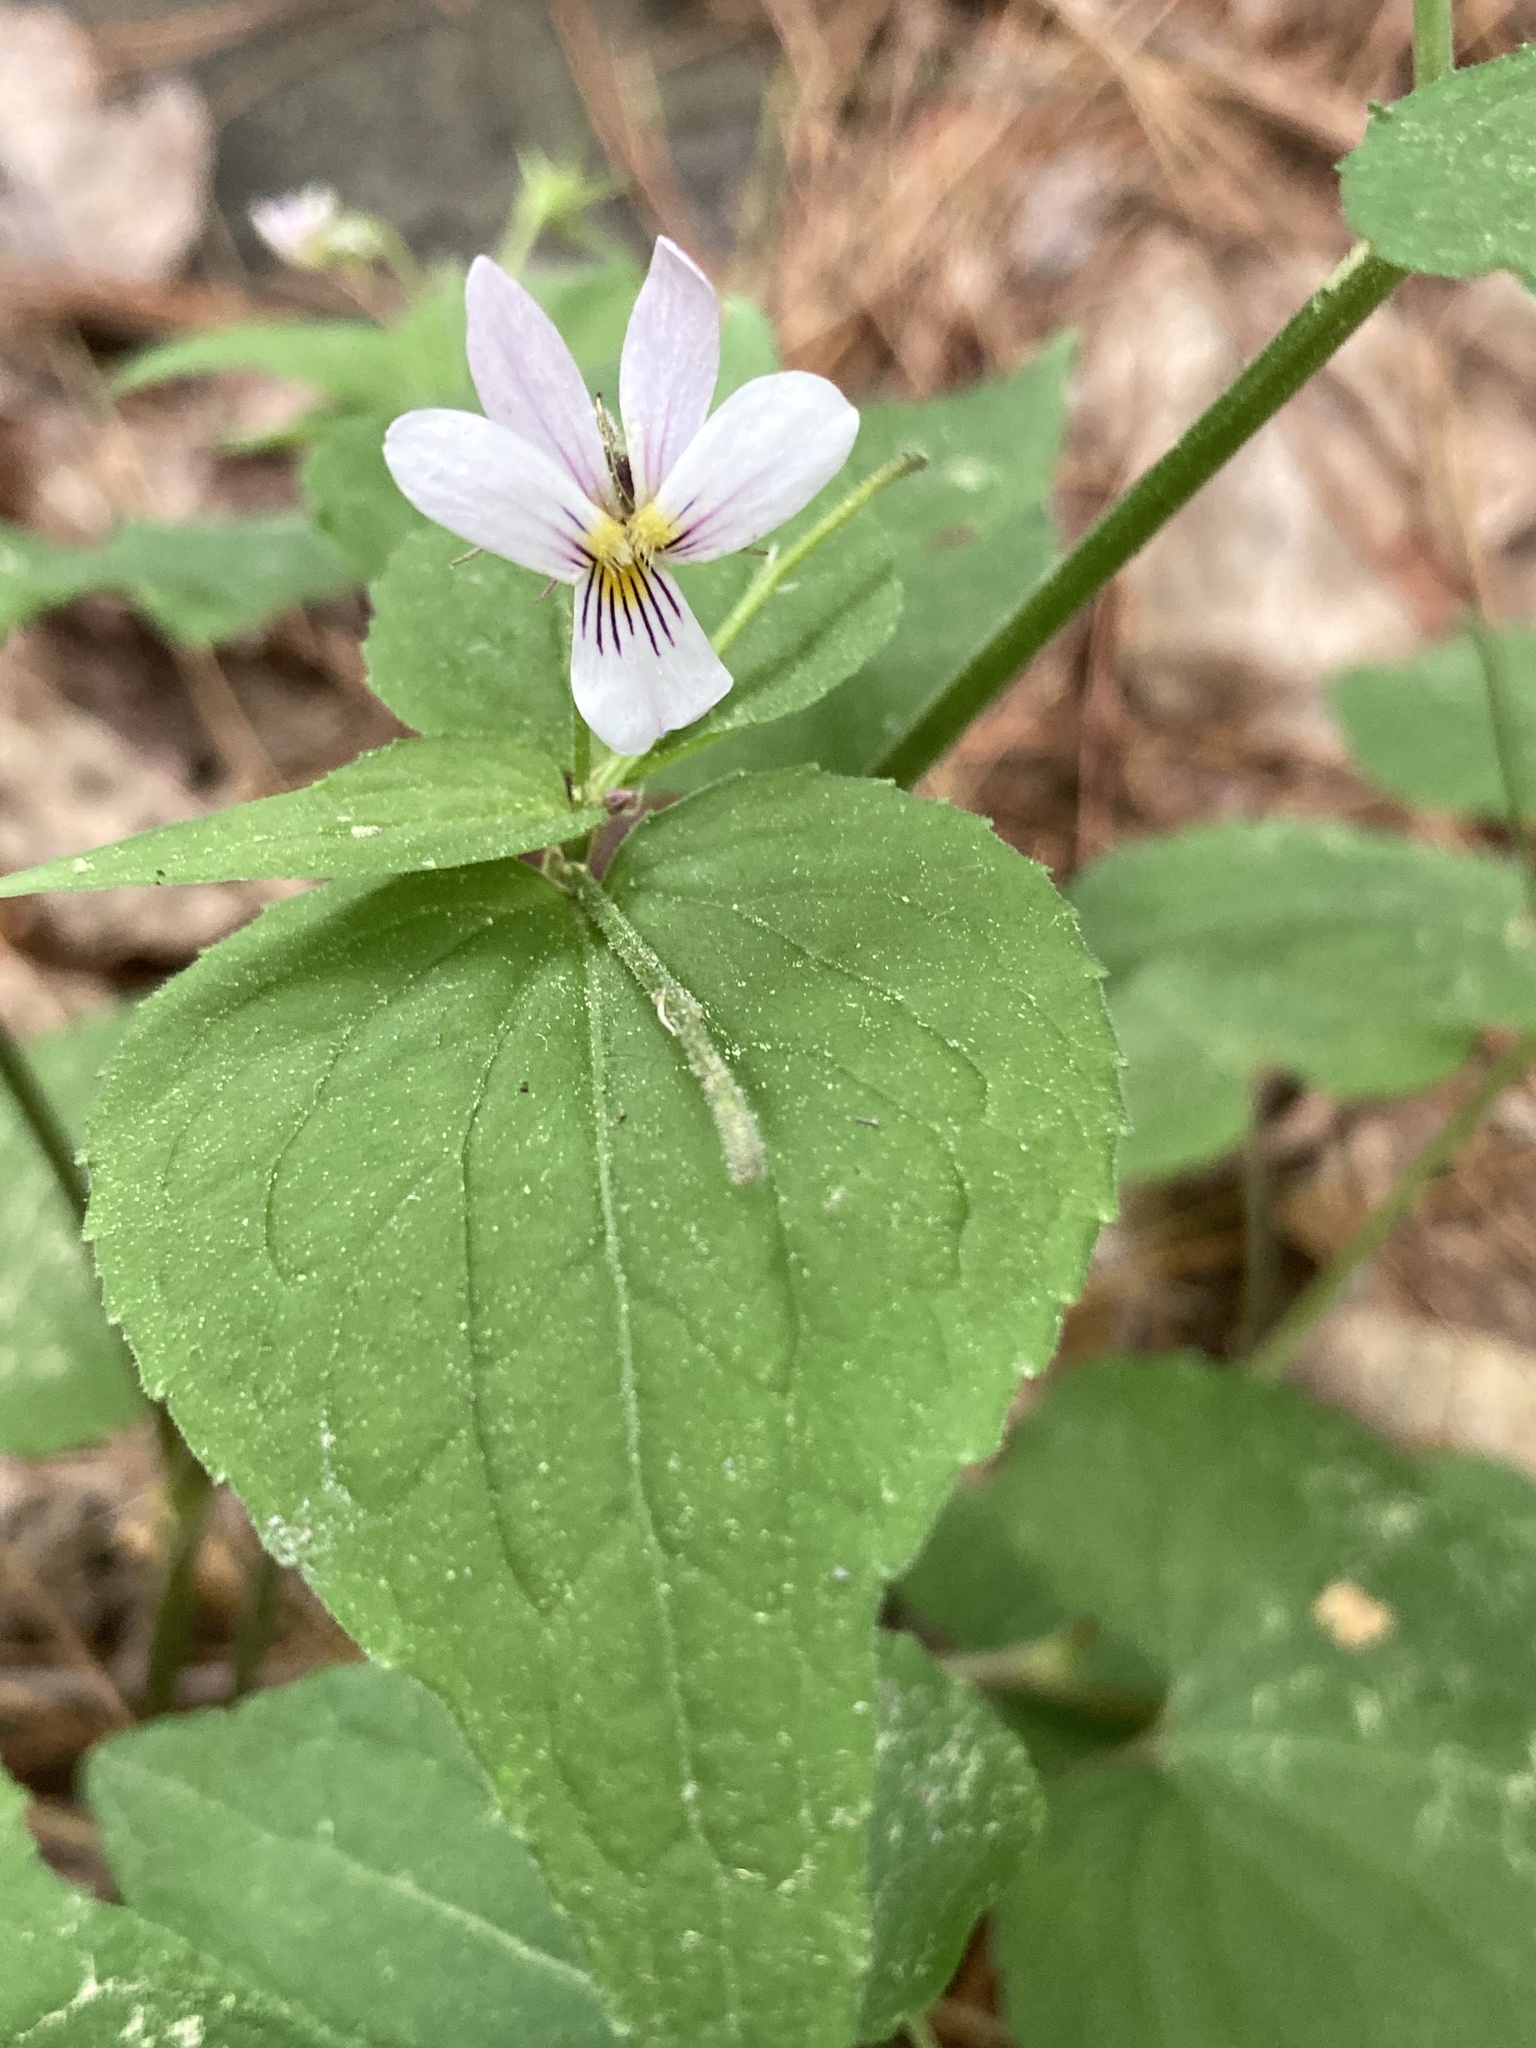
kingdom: Plantae
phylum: Tracheophyta
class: Magnoliopsida
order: Malpighiales
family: Violaceae
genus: Viola
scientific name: Viola canadensis
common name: Canada violet
